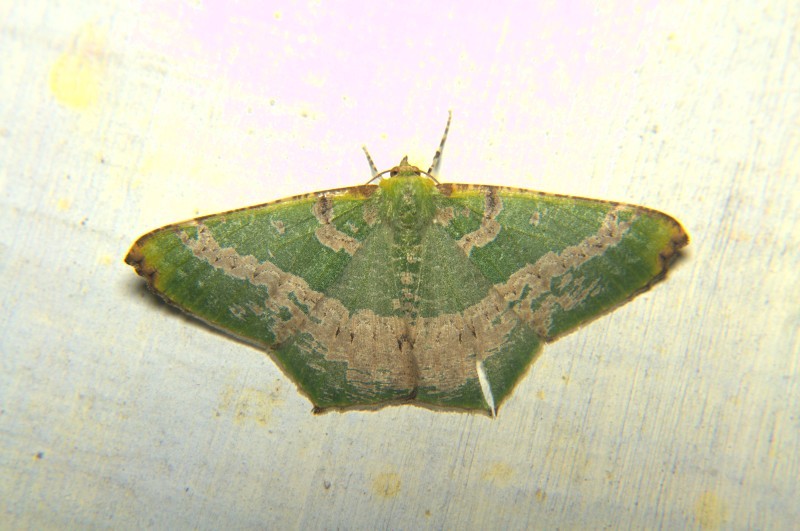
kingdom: Animalia
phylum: Arthropoda
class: Insecta
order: Lepidoptera
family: Geometridae
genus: Chloroglyphica
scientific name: Chloroglyphica variegata
